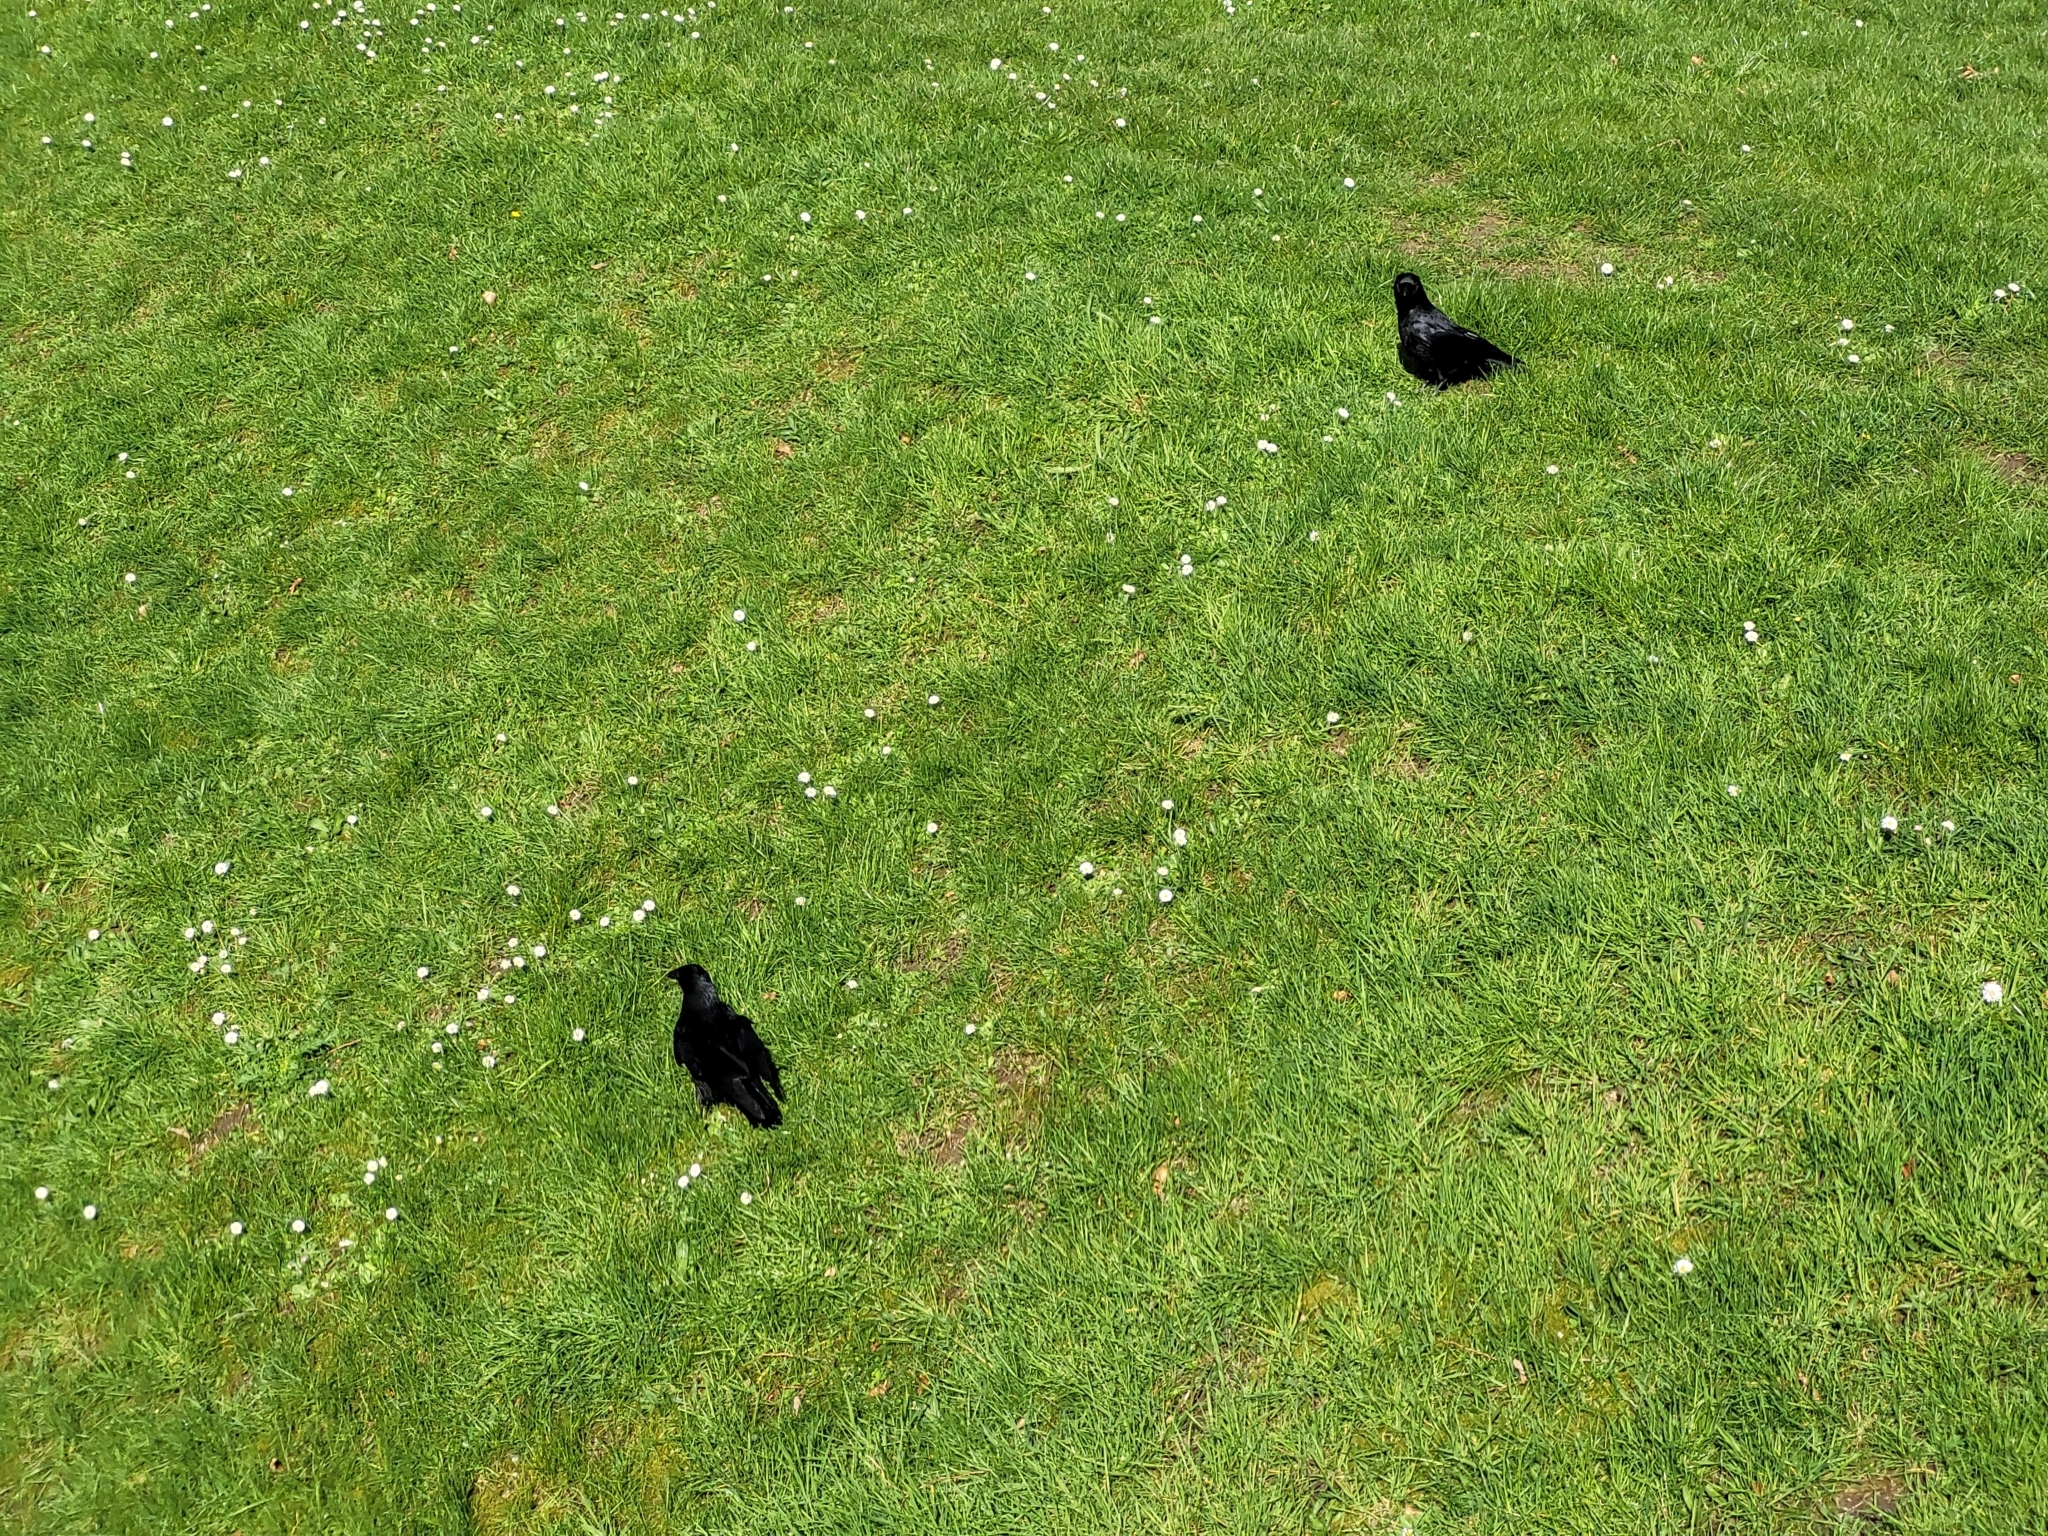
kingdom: Animalia
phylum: Chordata
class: Aves
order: Passeriformes
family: Corvidae
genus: Corvus
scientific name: Corvus corone
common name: Carrion crow
